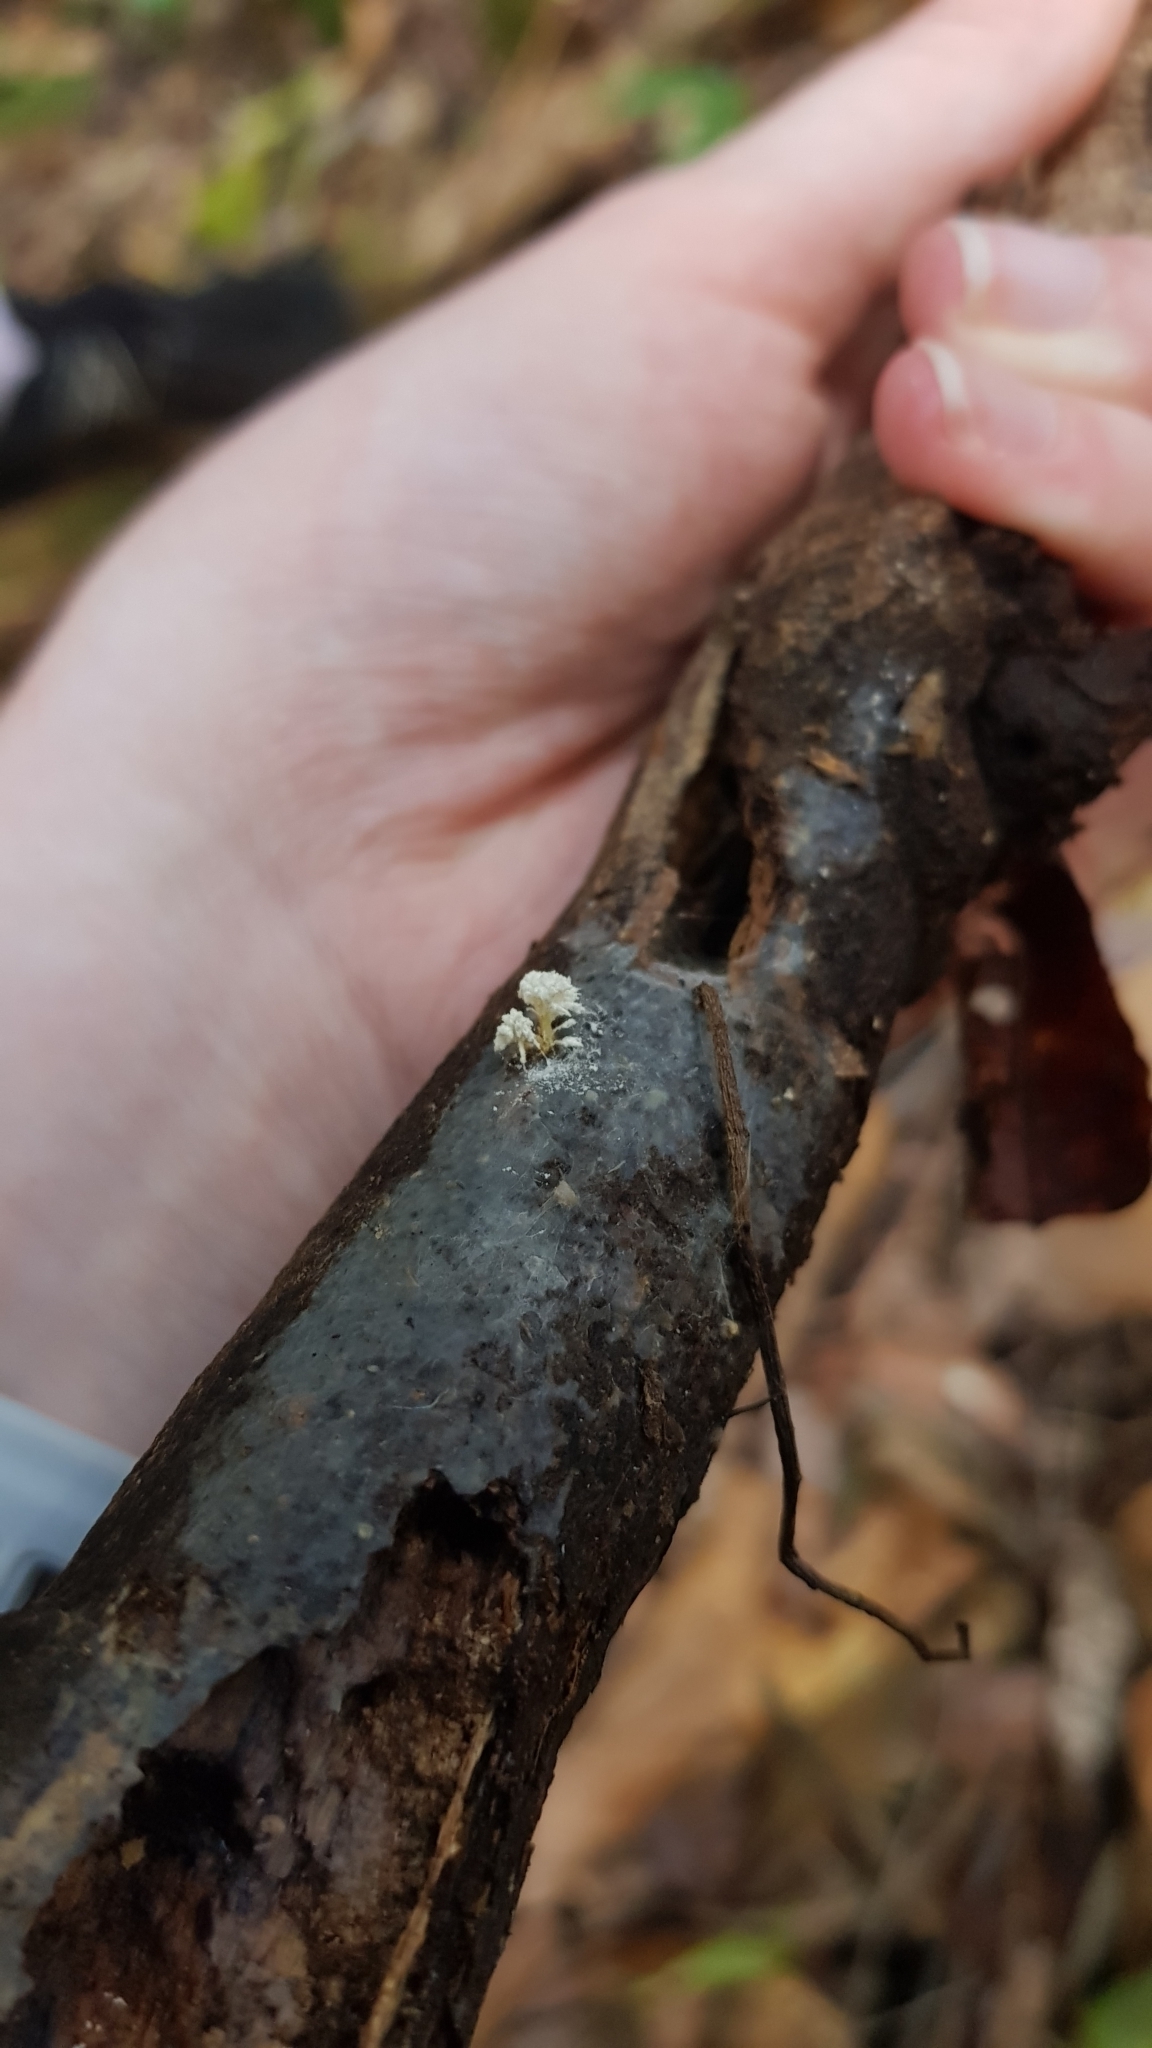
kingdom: Fungi
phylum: Ascomycota
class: Sordariomycetes
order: Hypocreales
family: Cordycipitaceae
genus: Cordyceps
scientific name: Cordyceps tenuipes
